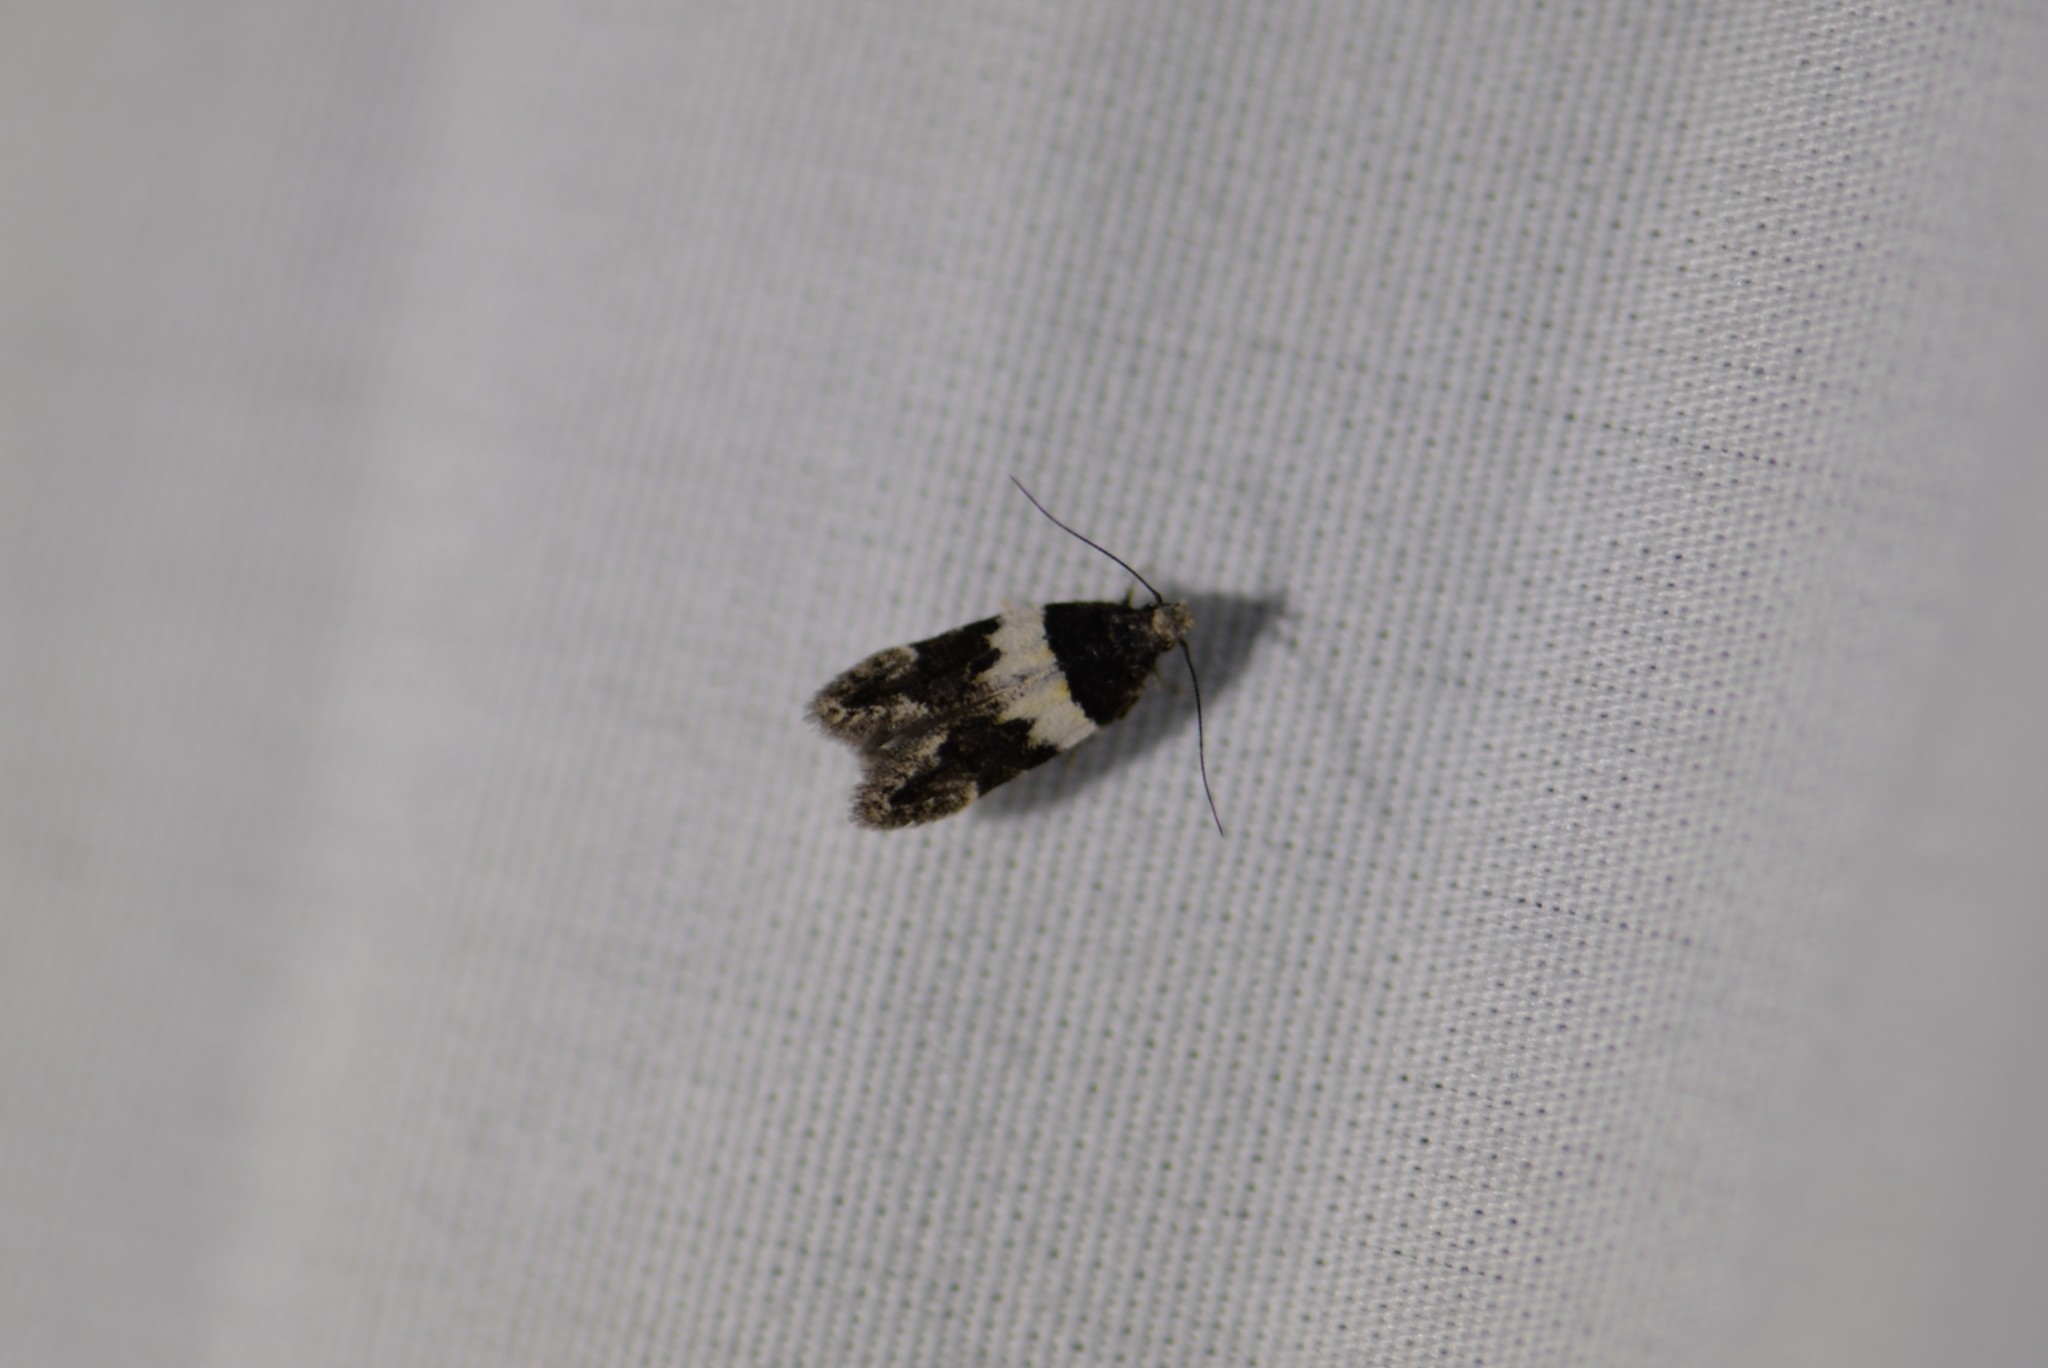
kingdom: Animalia
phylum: Arthropoda
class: Insecta
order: Lepidoptera
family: Gelechiidae
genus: Pubitelphusa
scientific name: Pubitelphusa latifasciella
